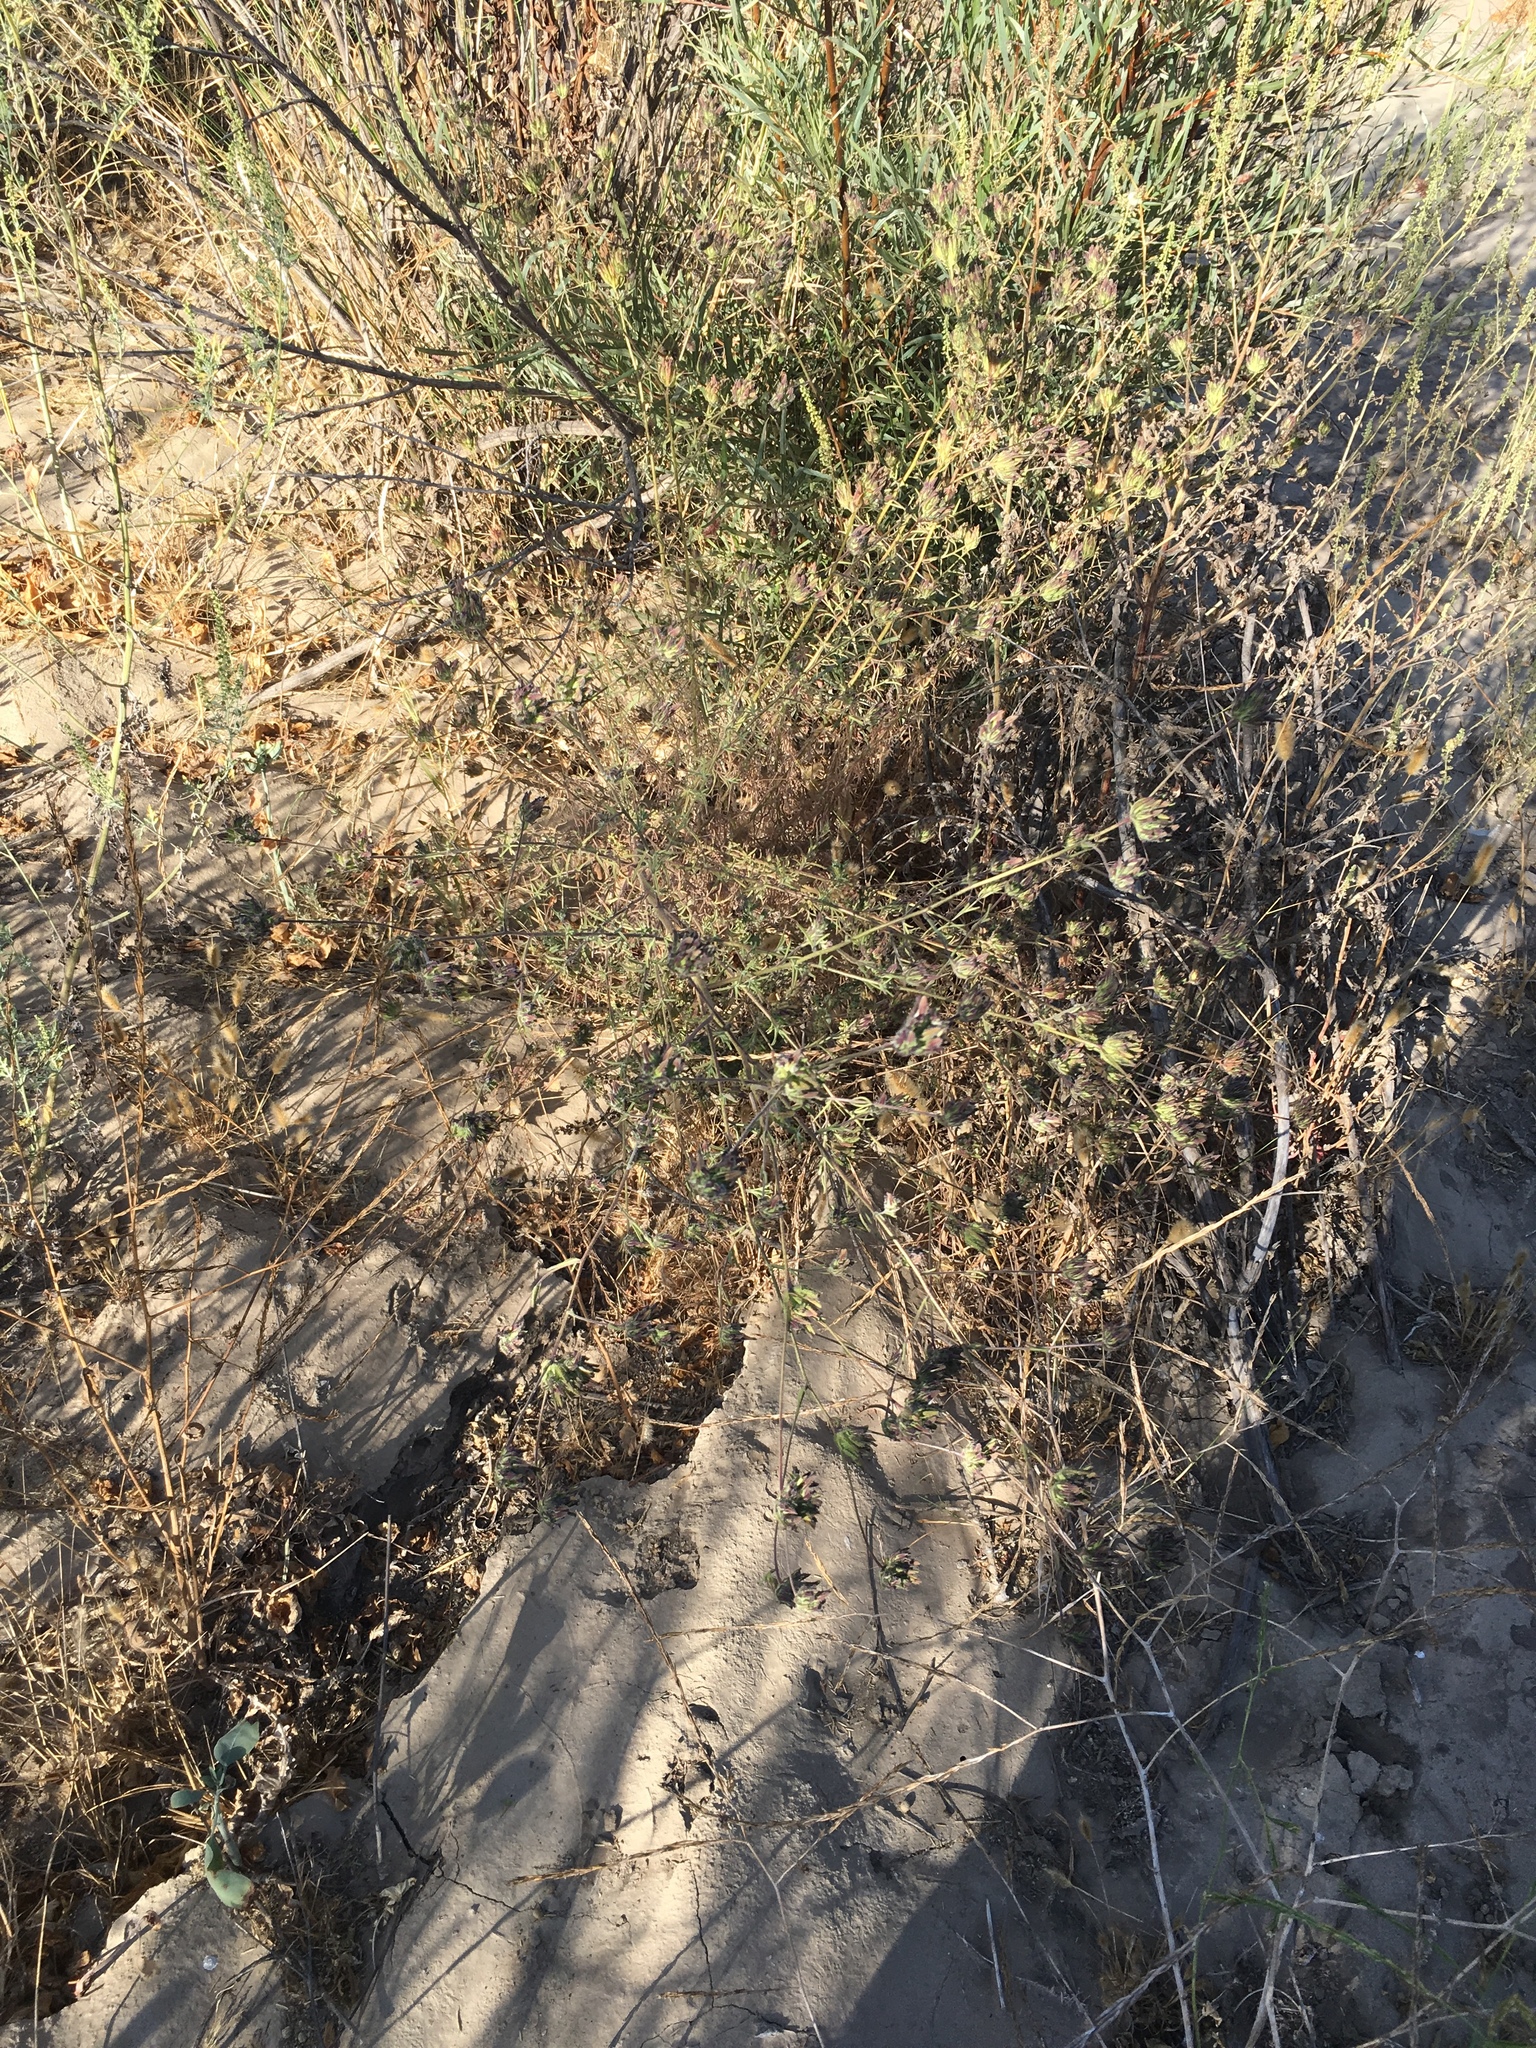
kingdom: Plantae
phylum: Tracheophyta
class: Magnoliopsida
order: Lamiales
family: Orobanchaceae
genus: Cordylanthus
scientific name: Cordylanthus rigidus
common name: Stiff-branch bird's-beak
